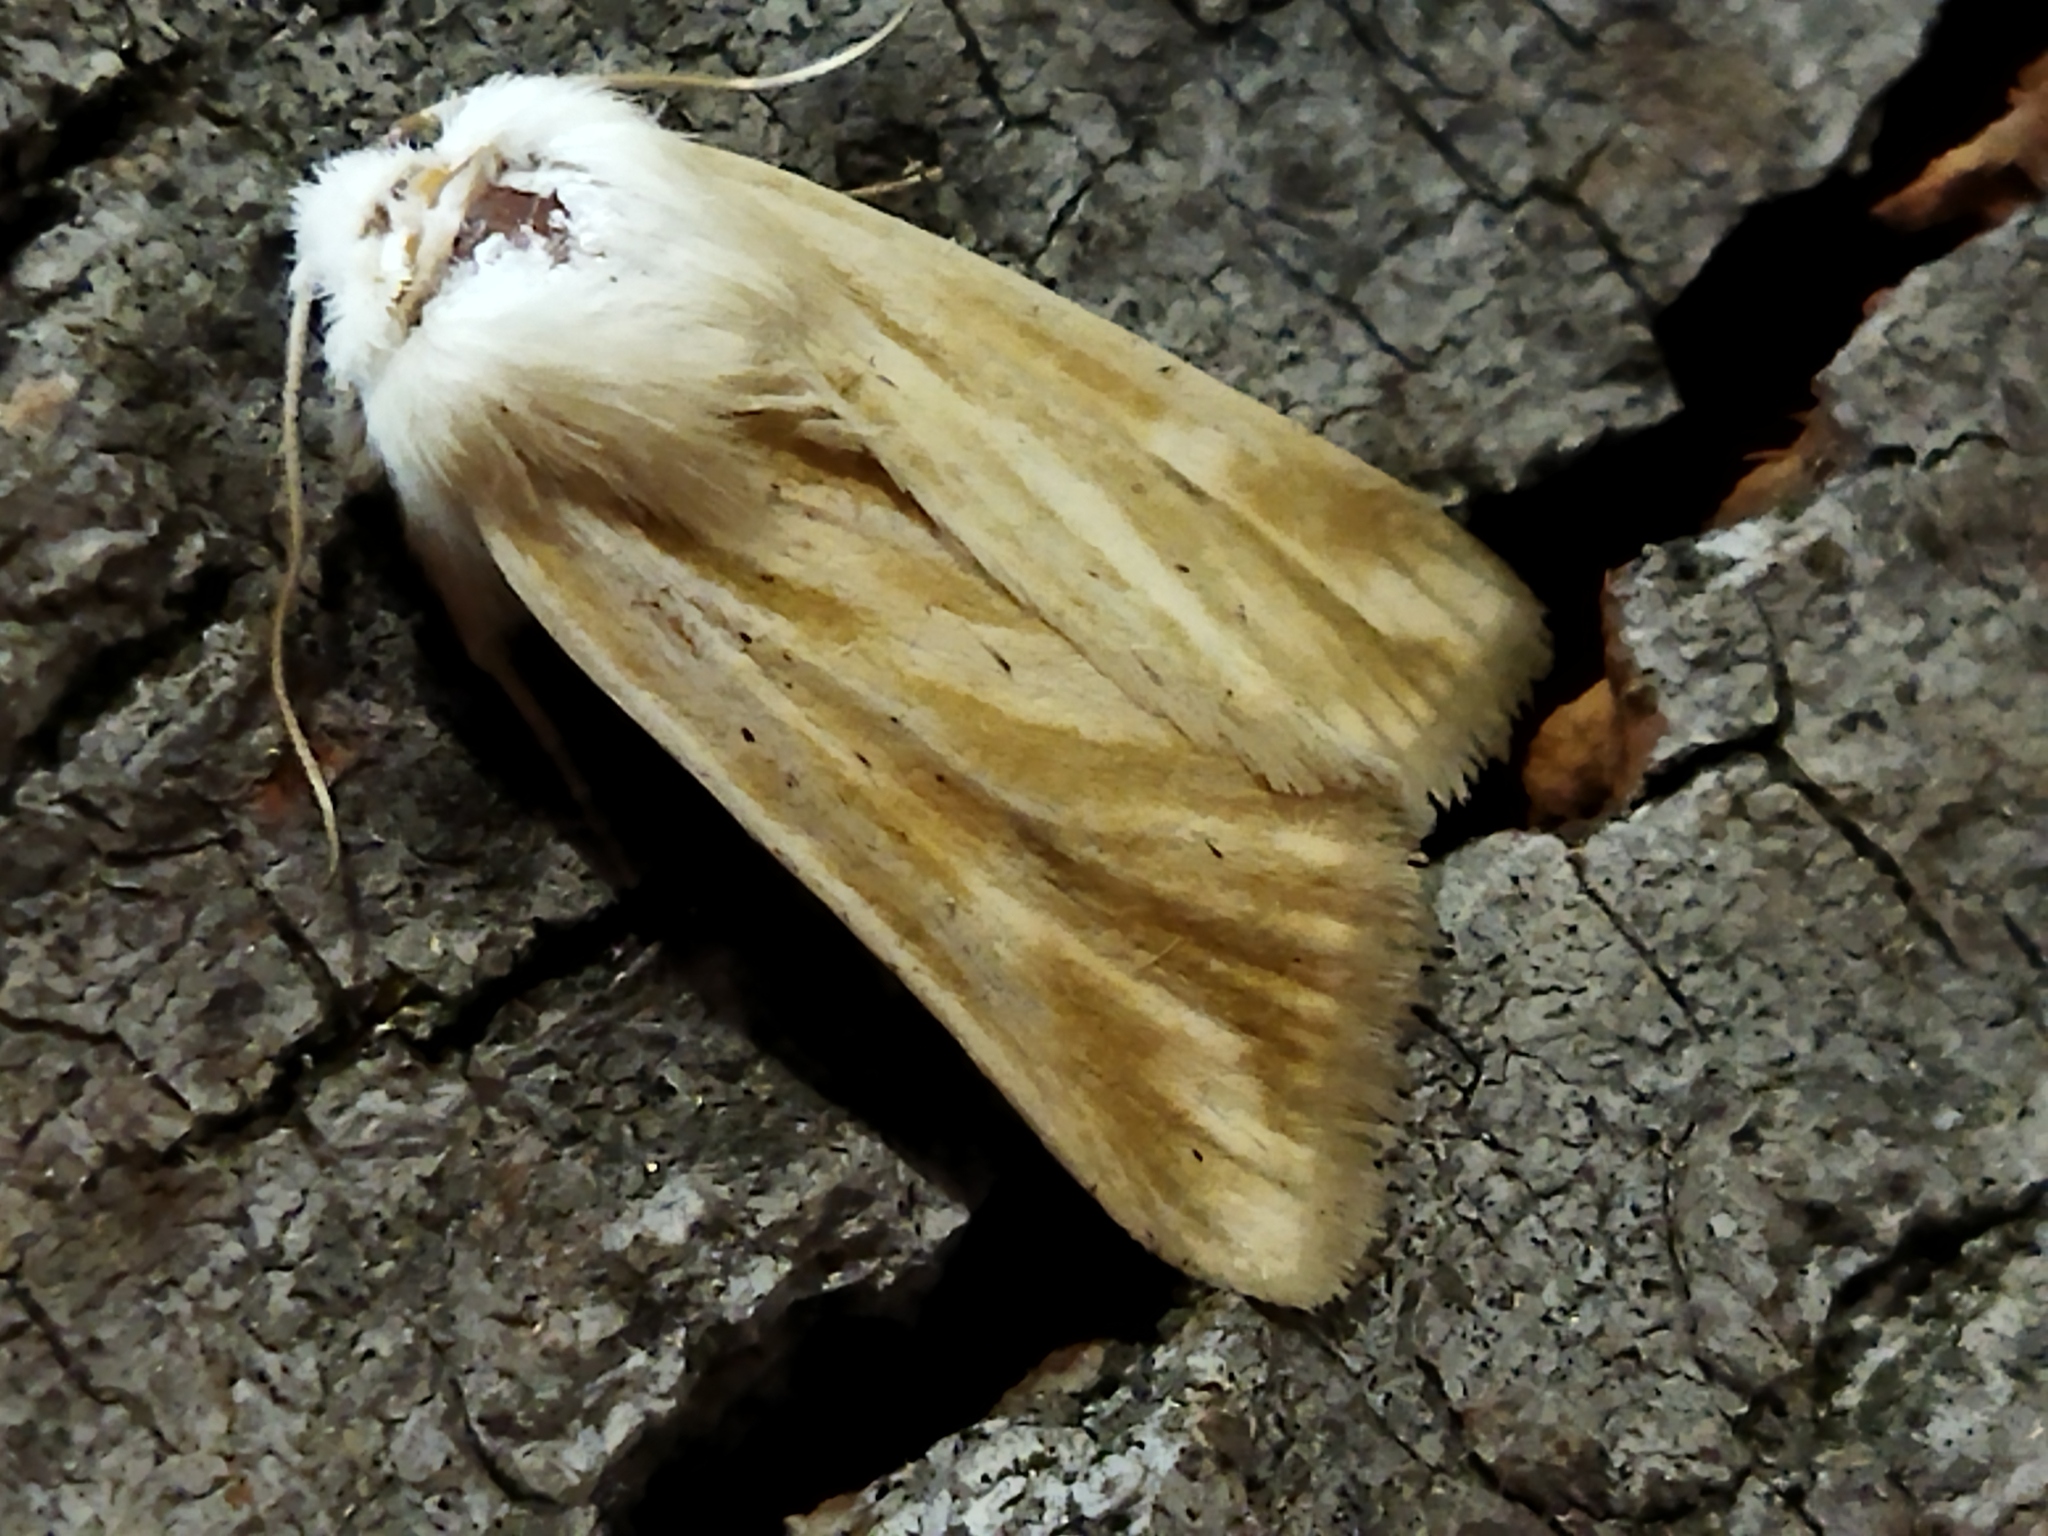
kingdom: Animalia
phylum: Arthropoda
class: Insecta
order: Lepidoptera
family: Noctuidae
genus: Oria
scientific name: Oria musculosa
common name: Brighton wainscot
